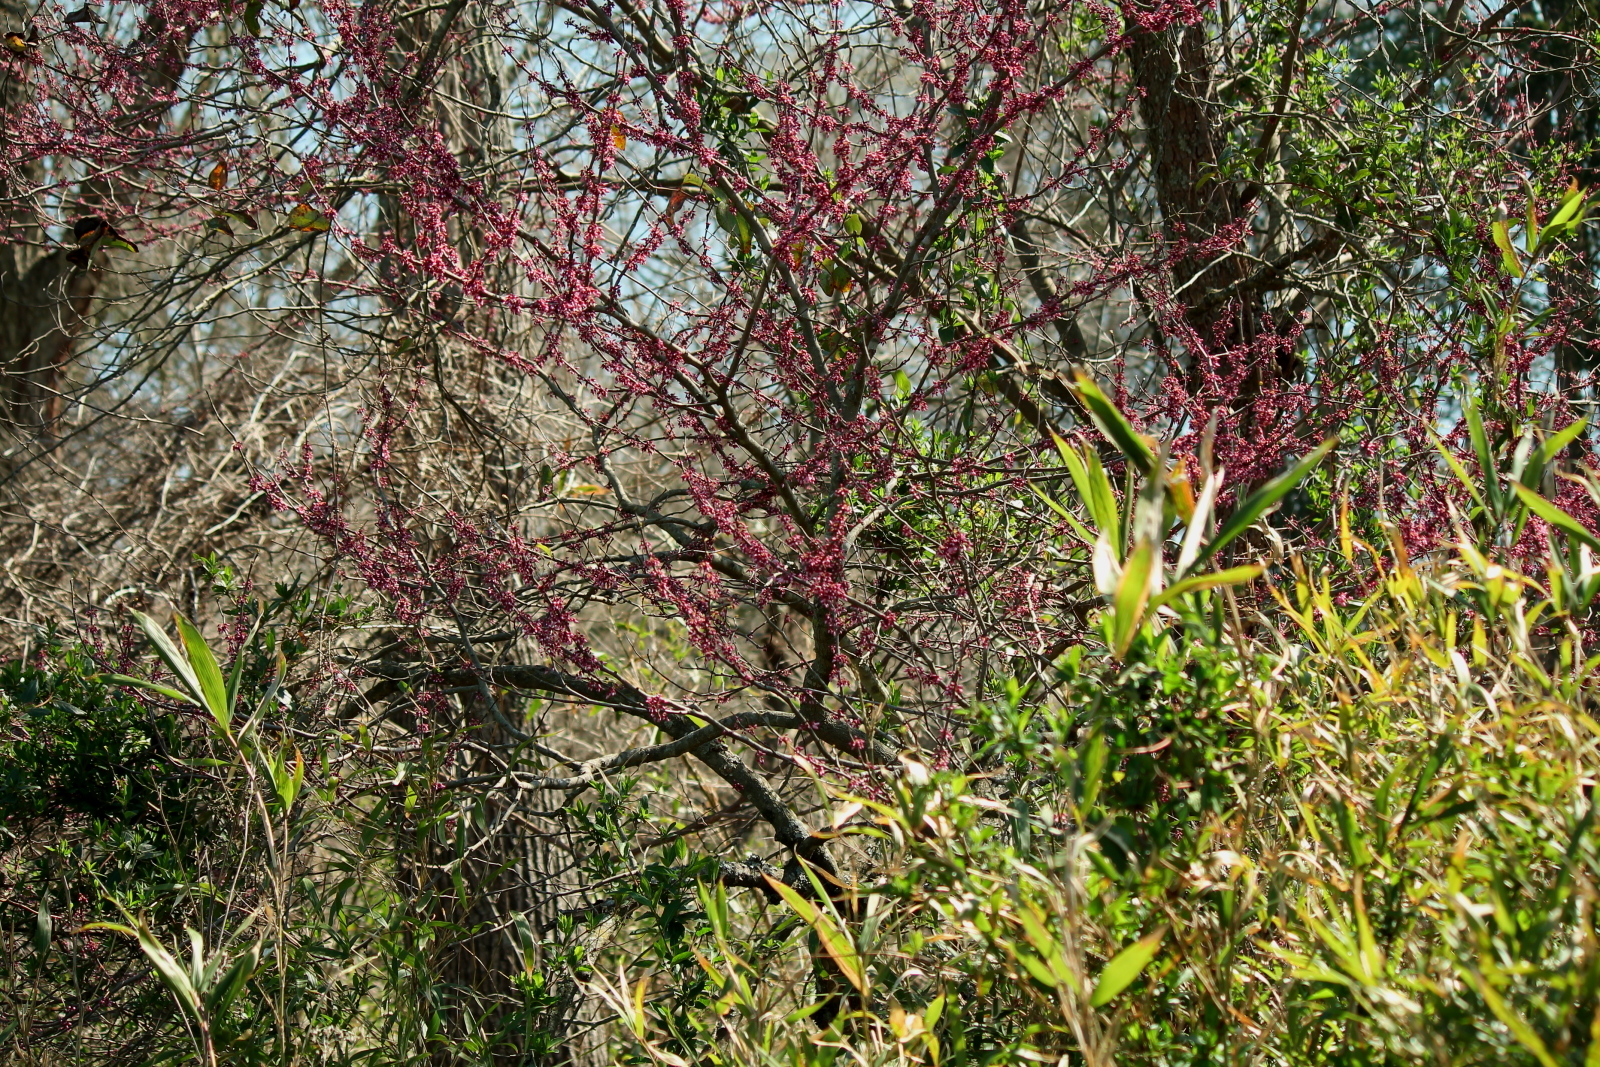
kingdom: Plantae
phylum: Tracheophyta
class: Magnoliopsida
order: Fabales
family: Fabaceae
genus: Cercis
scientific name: Cercis canadensis
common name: Eastern redbud
